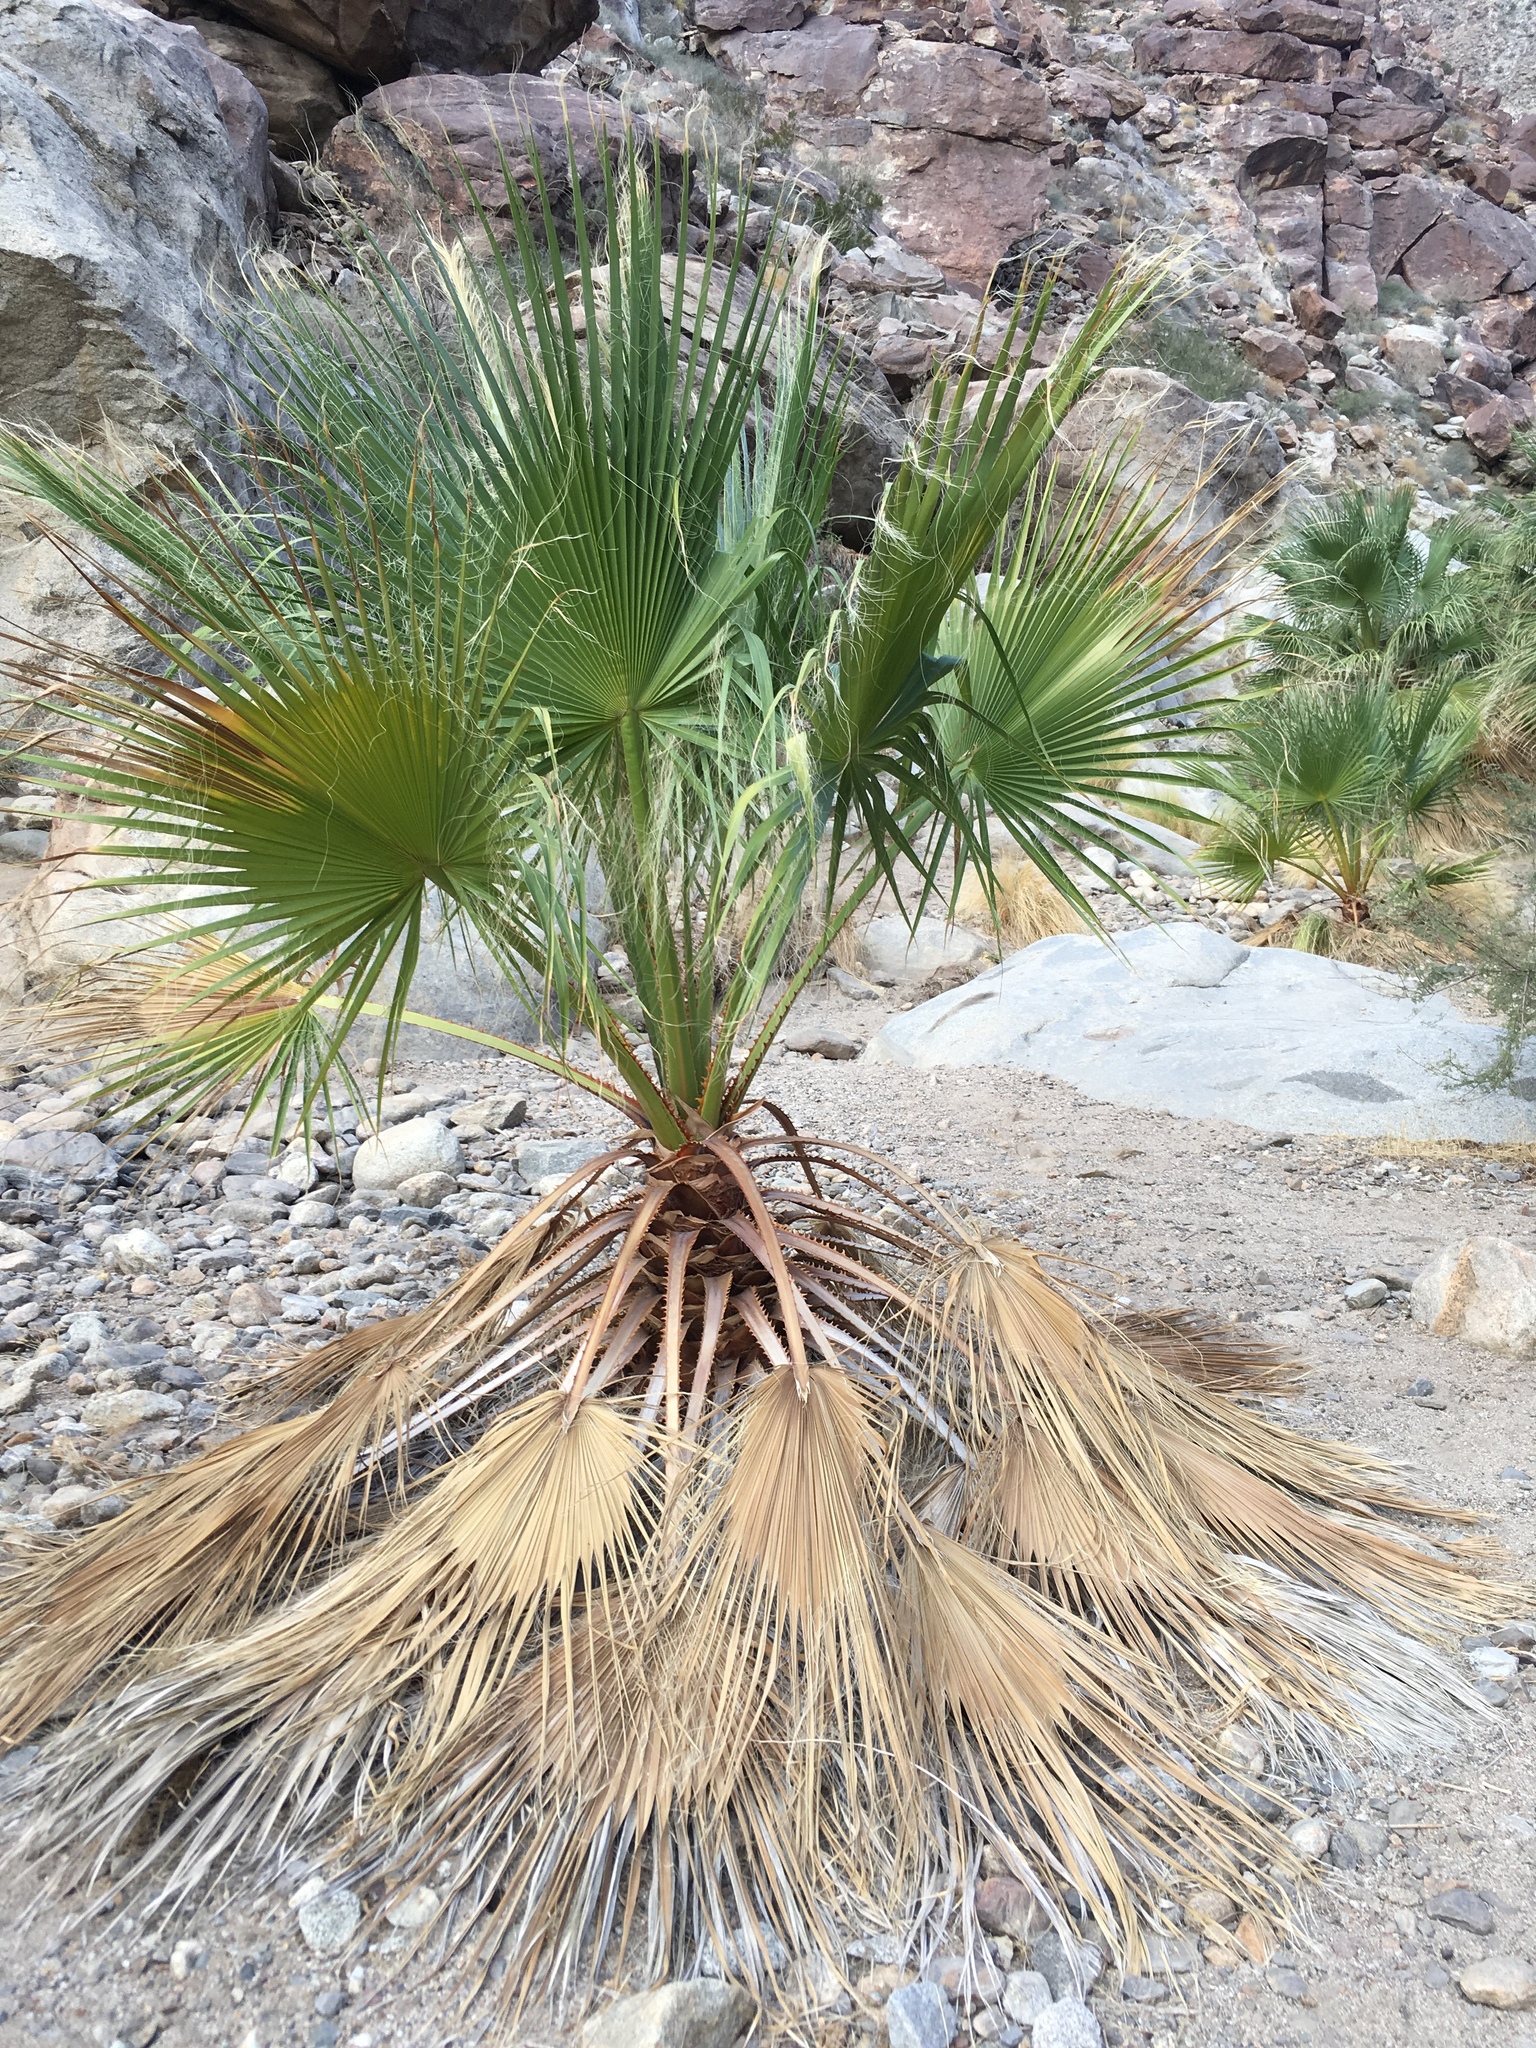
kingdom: Plantae
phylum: Tracheophyta
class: Liliopsida
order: Arecales
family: Arecaceae
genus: Washingtonia
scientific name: Washingtonia filifera
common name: California fan palm
